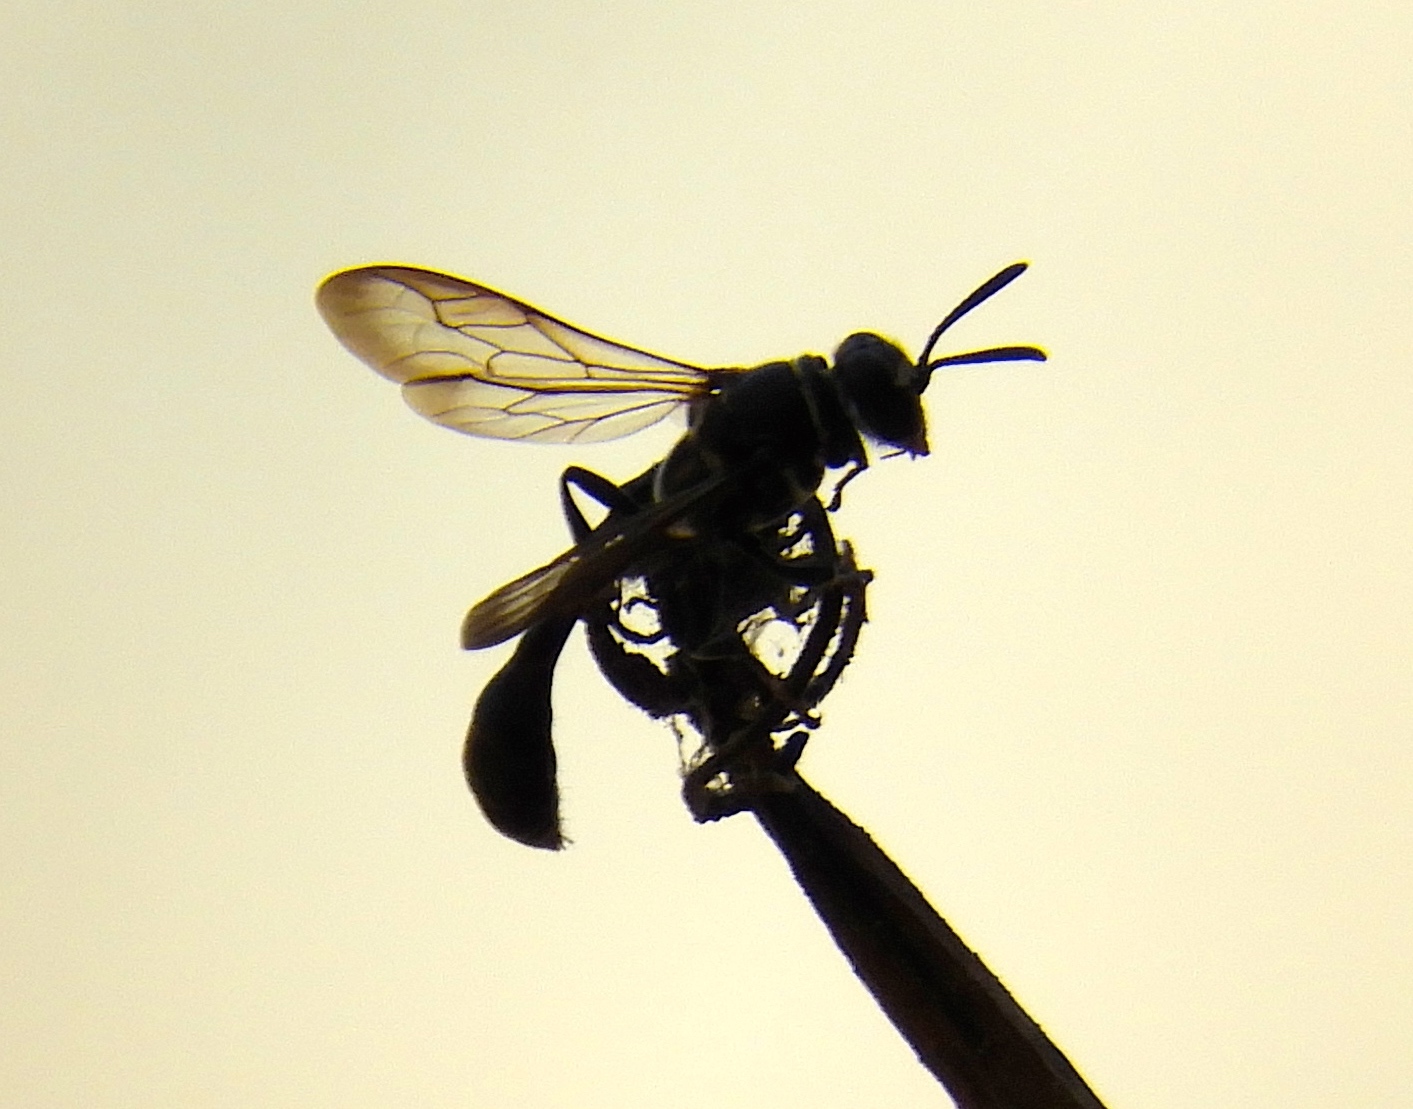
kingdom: Animalia
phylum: Arthropoda
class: Insecta
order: Hymenoptera
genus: Trypargilum
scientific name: Trypargilum
